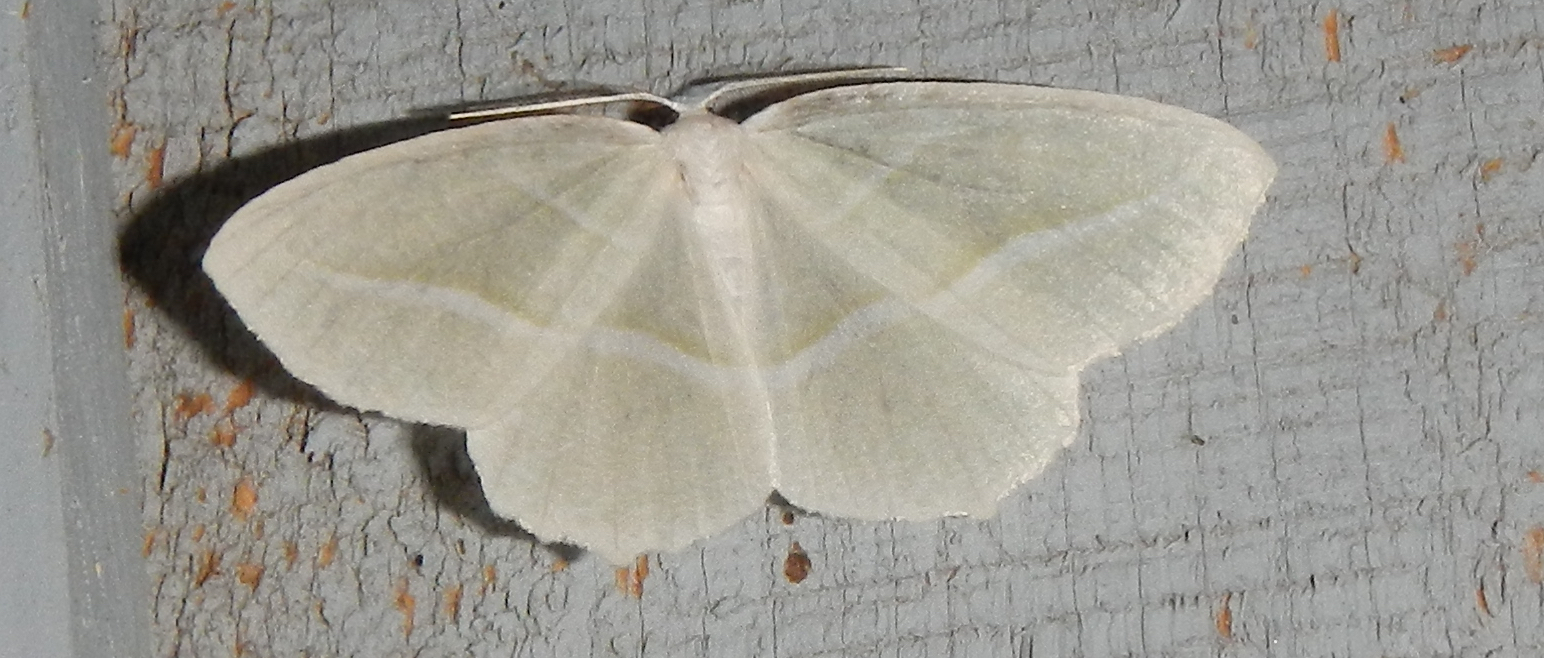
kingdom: Animalia
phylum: Arthropoda
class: Insecta
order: Lepidoptera
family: Geometridae
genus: Campaea
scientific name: Campaea perlata
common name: Fringed looper
